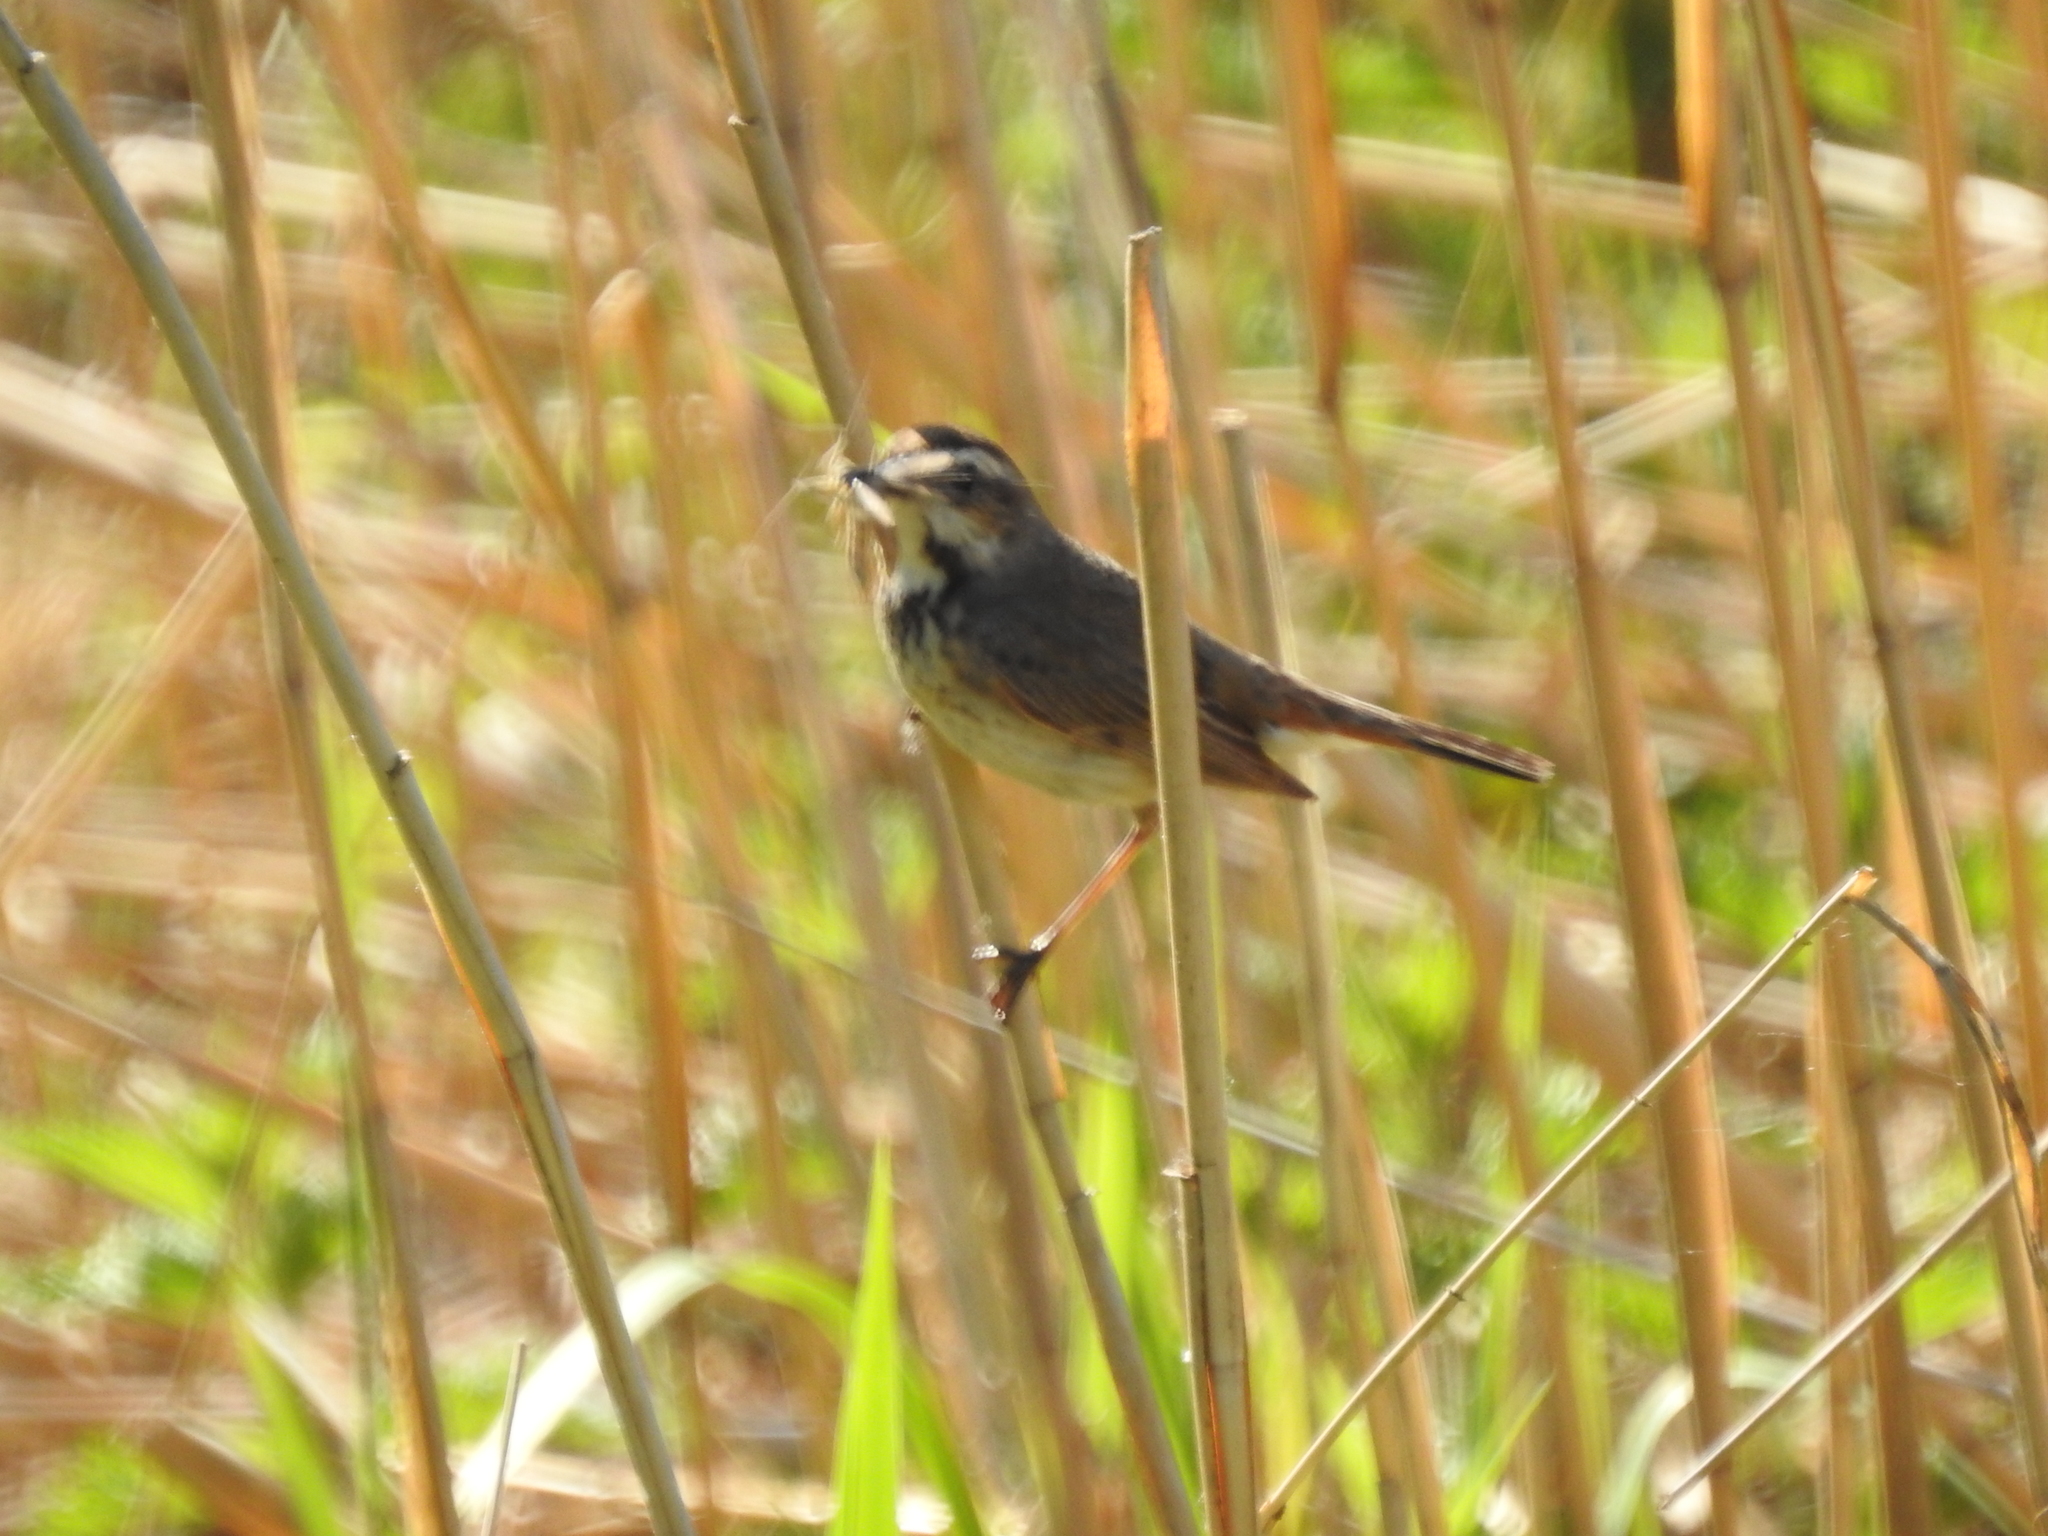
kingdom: Animalia
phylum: Chordata
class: Aves
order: Passeriformes
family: Muscicapidae
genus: Luscinia
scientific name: Luscinia svecica
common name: Bluethroat
